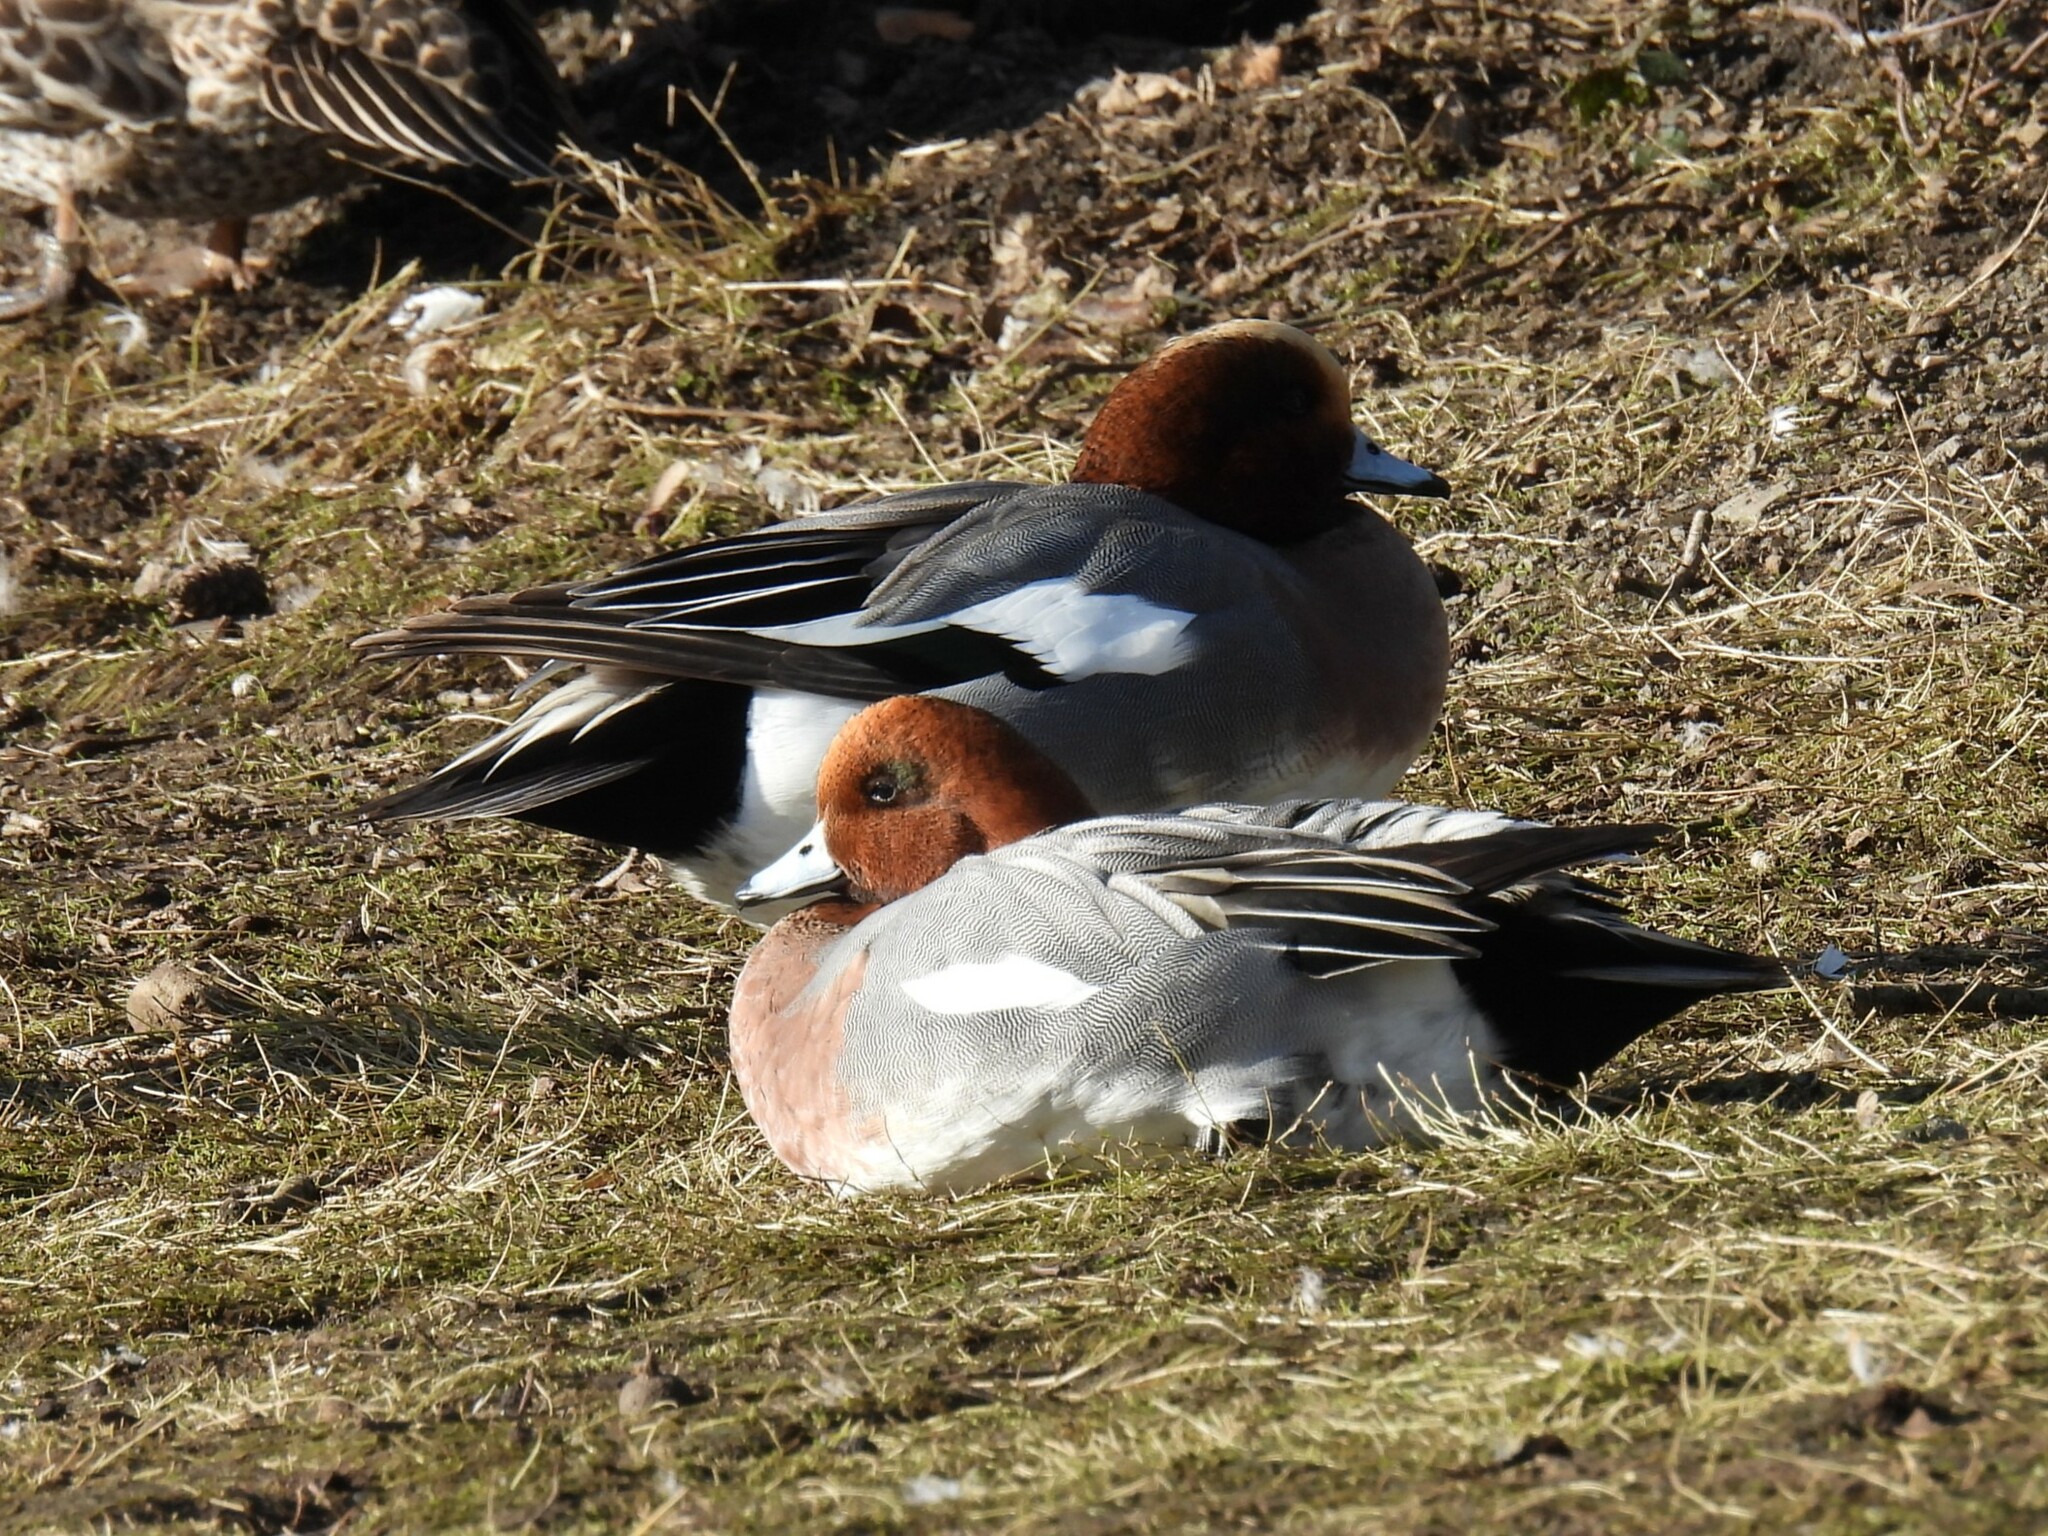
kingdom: Animalia
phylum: Chordata
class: Aves
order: Anseriformes
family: Anatidae
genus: Mareca
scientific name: Mareca penelope
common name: Eurasian wigeon
